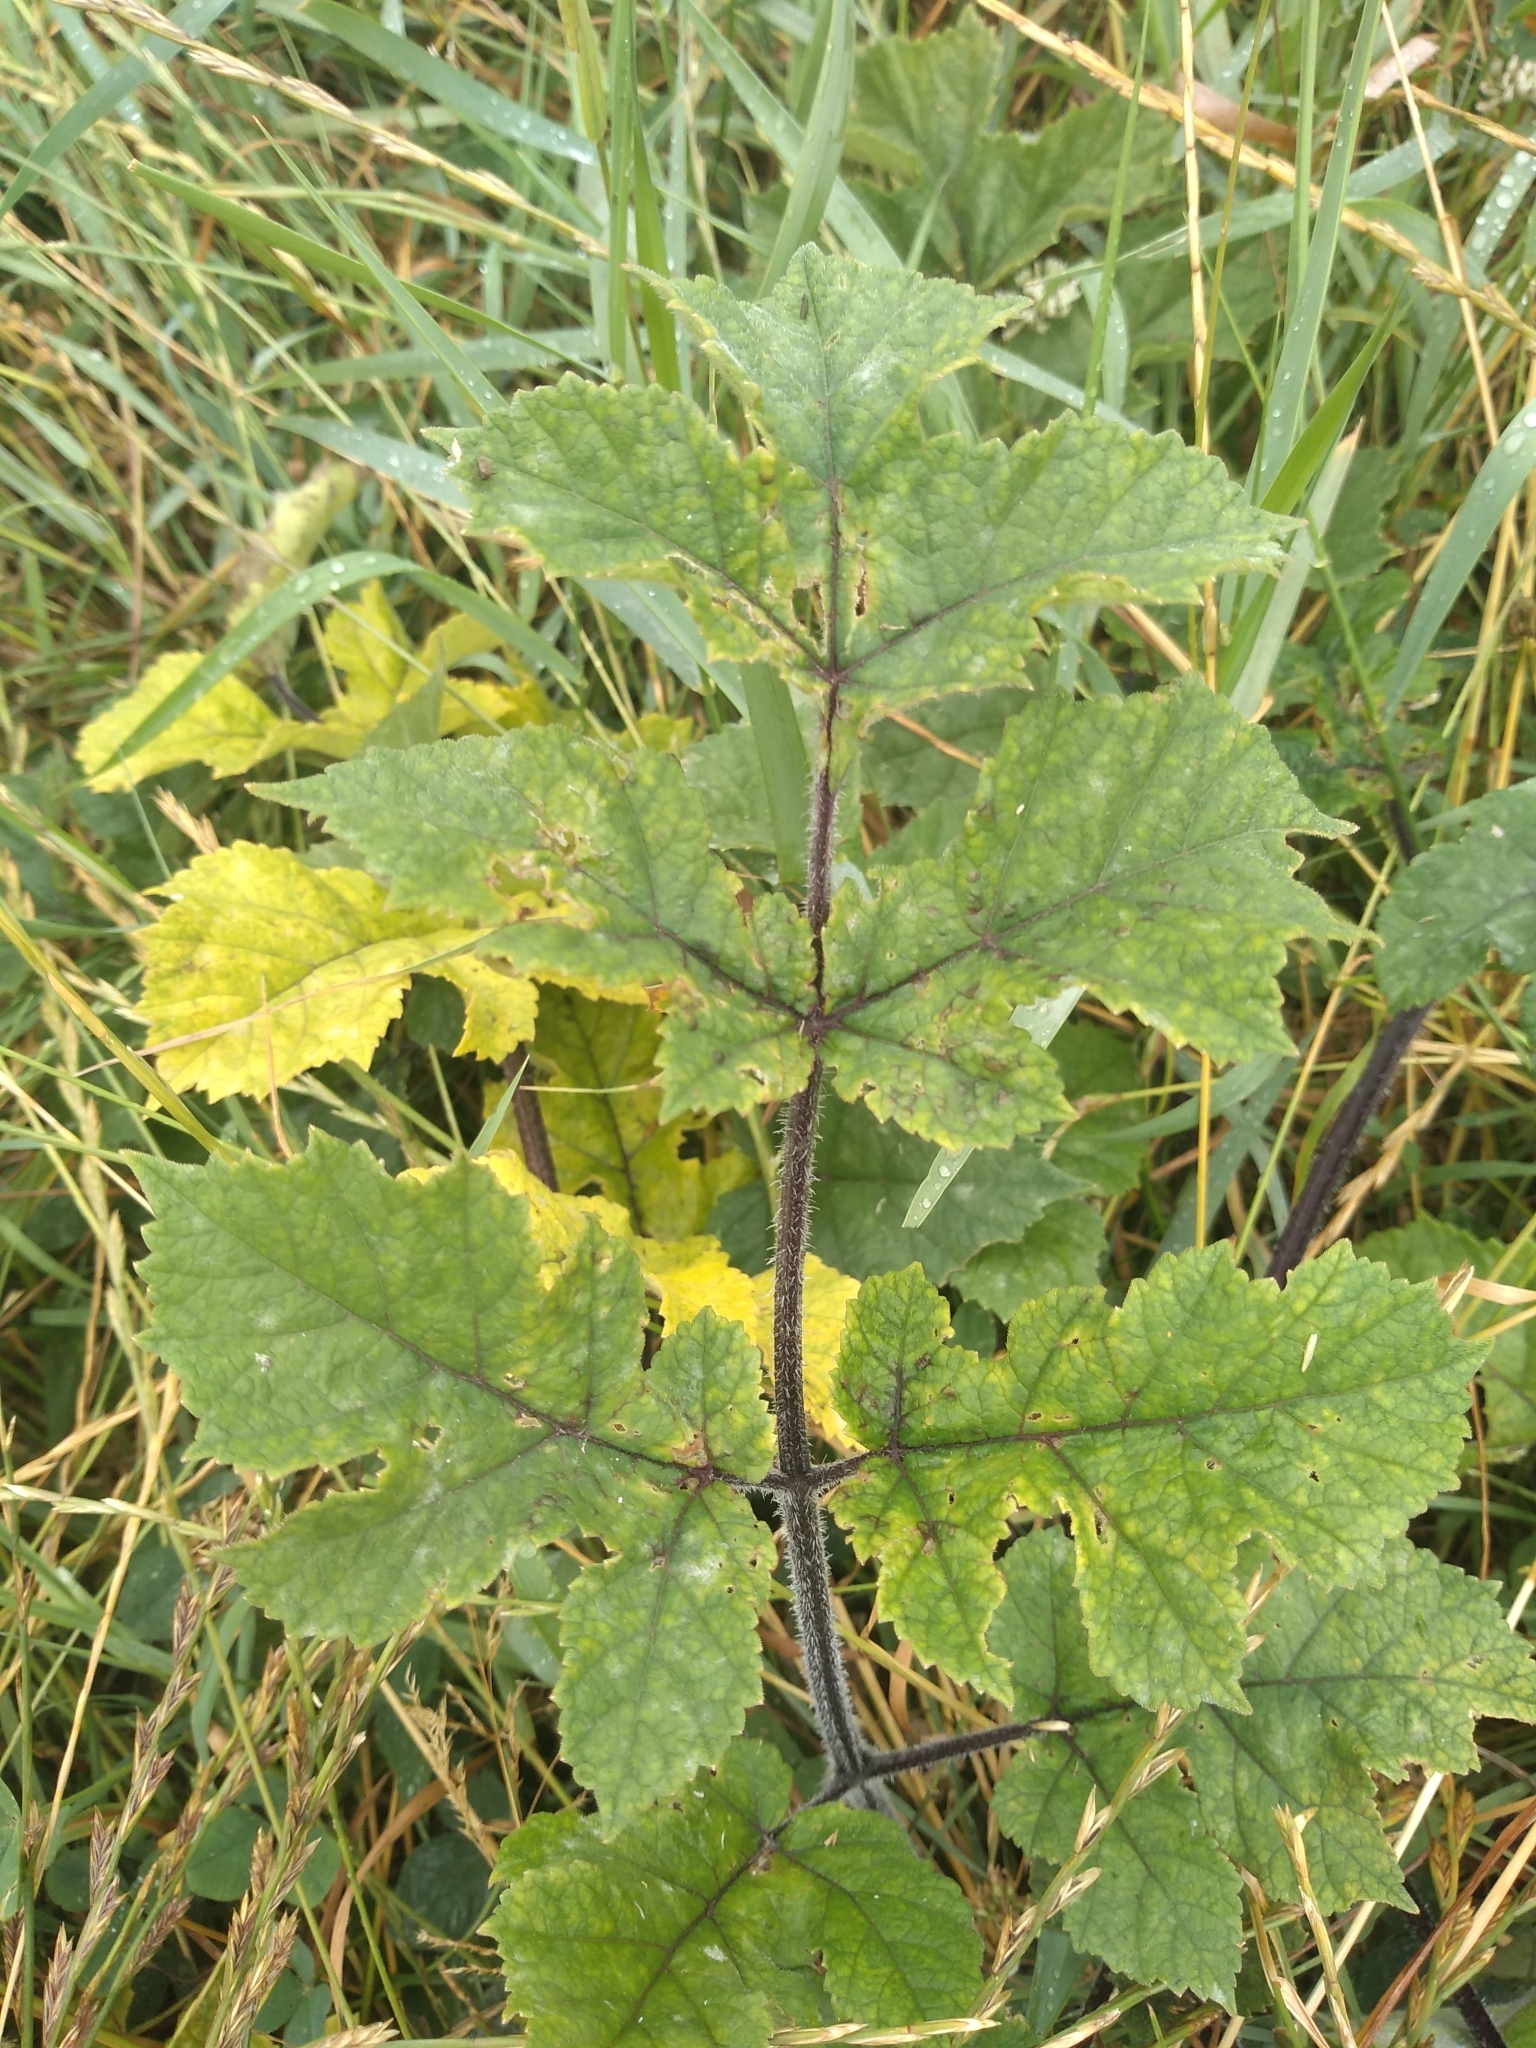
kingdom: Plantae
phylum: Tracheophyta
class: Magnoliopsida
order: Apiales
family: Apiaceae
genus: Heracleum
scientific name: Heracleum sphondylium
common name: Hogweed
